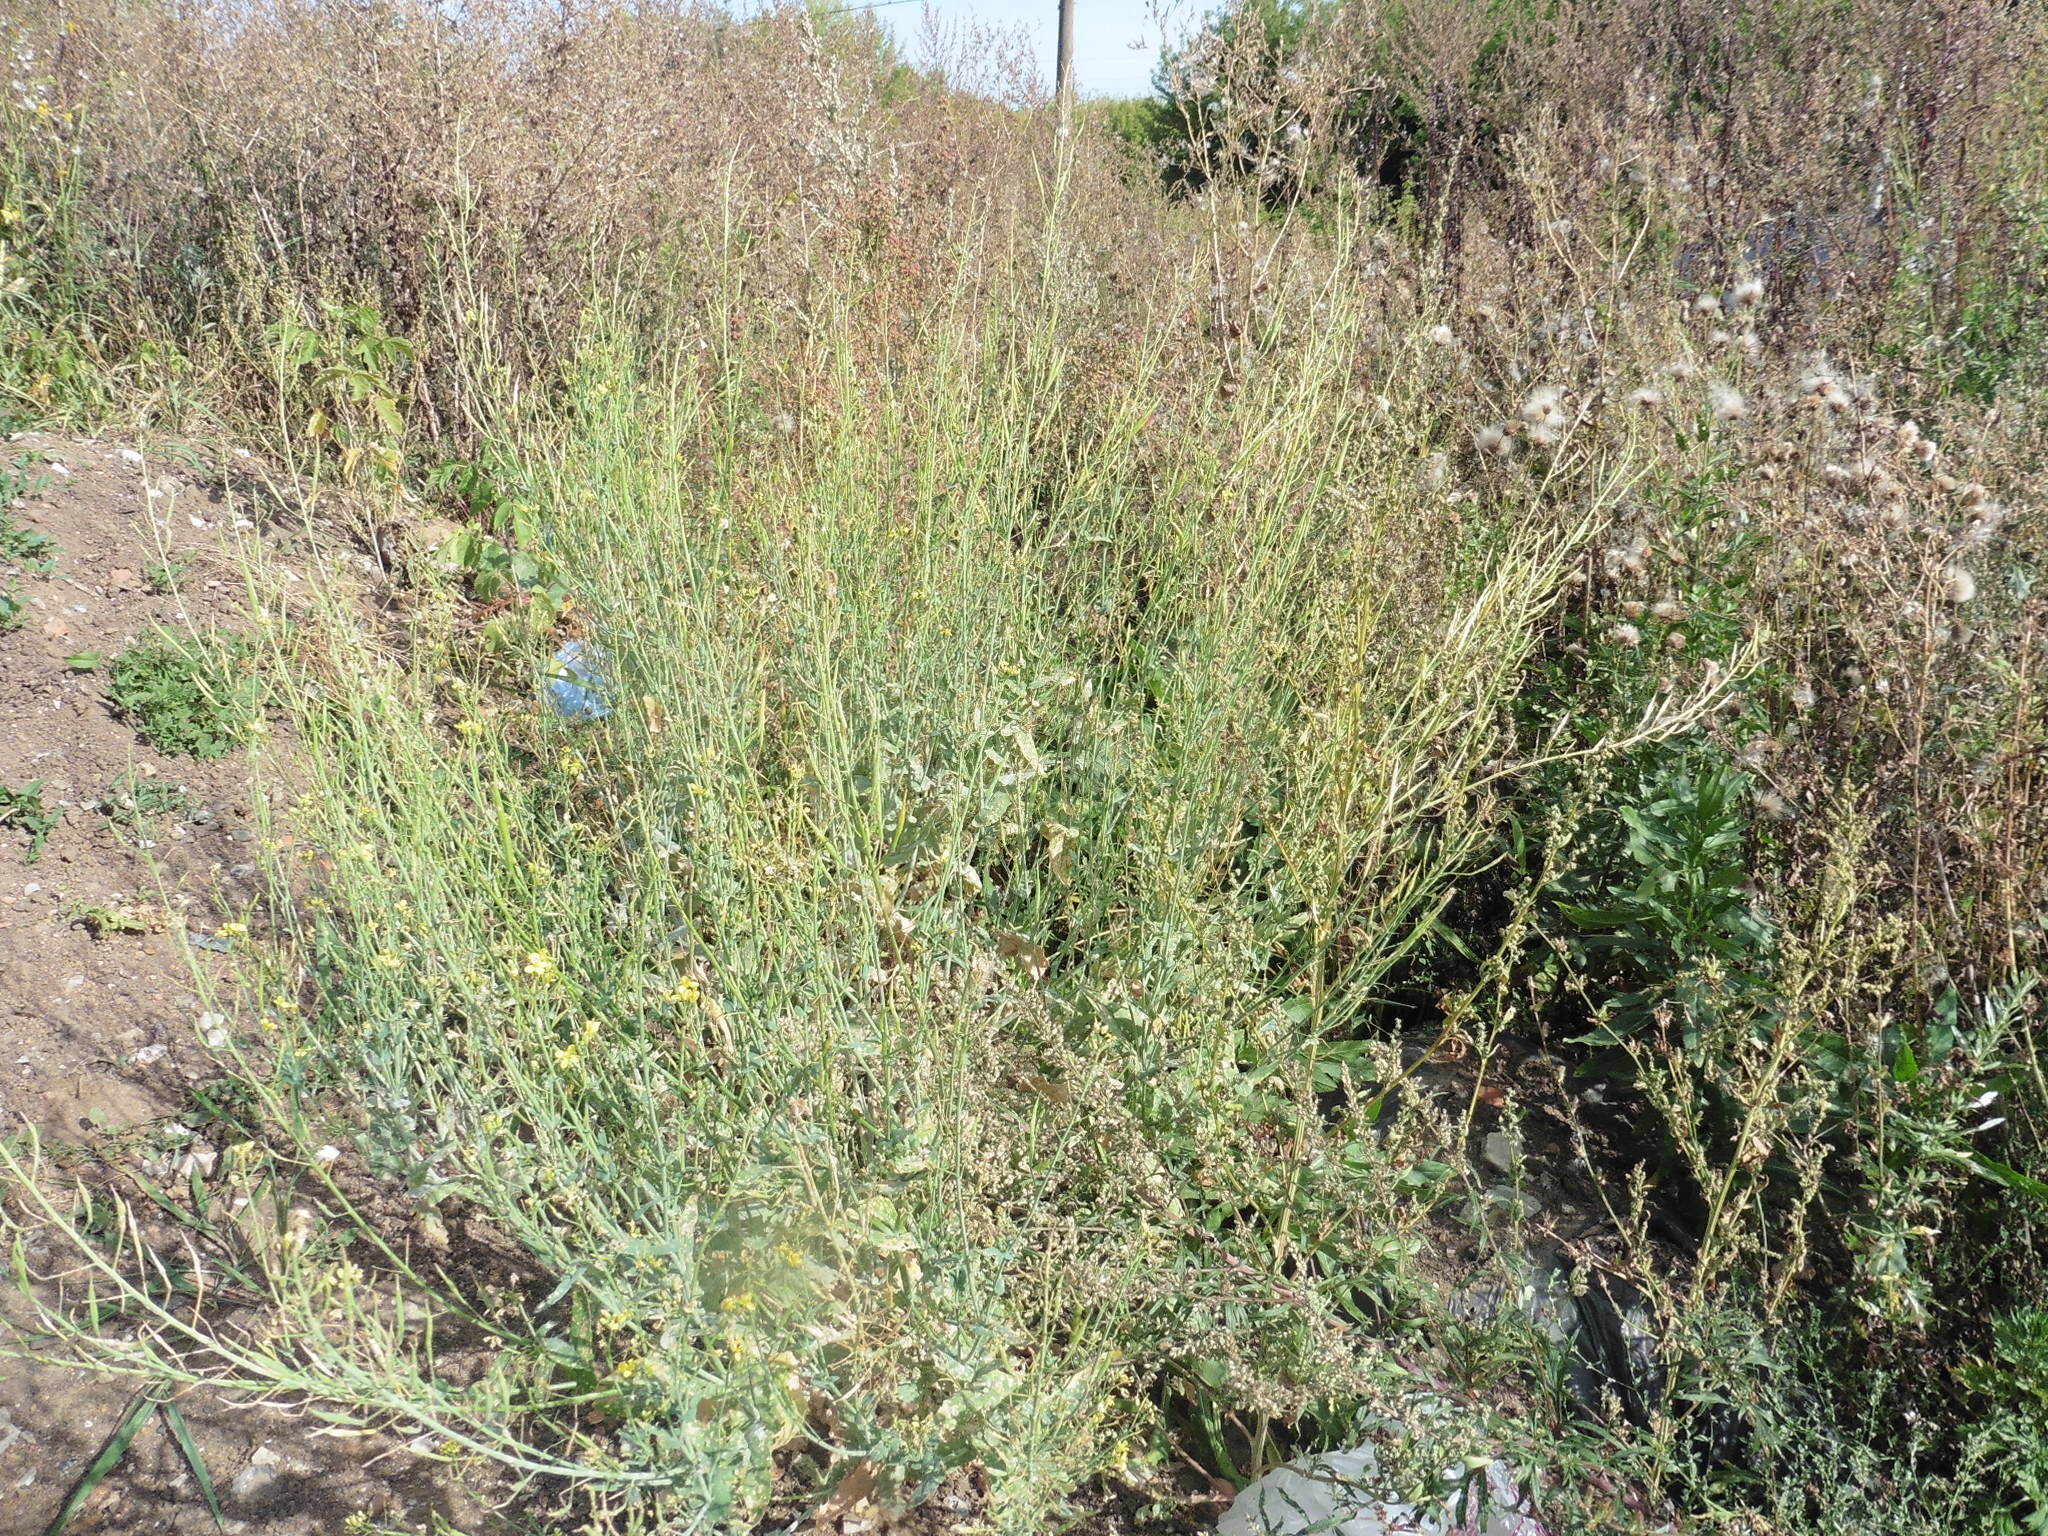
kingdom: Plantae
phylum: Tracheophyta
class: Magnoliopsida
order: Brassicales
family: Brassicaceae
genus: Brassica
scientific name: Brassica napus
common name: Rape
